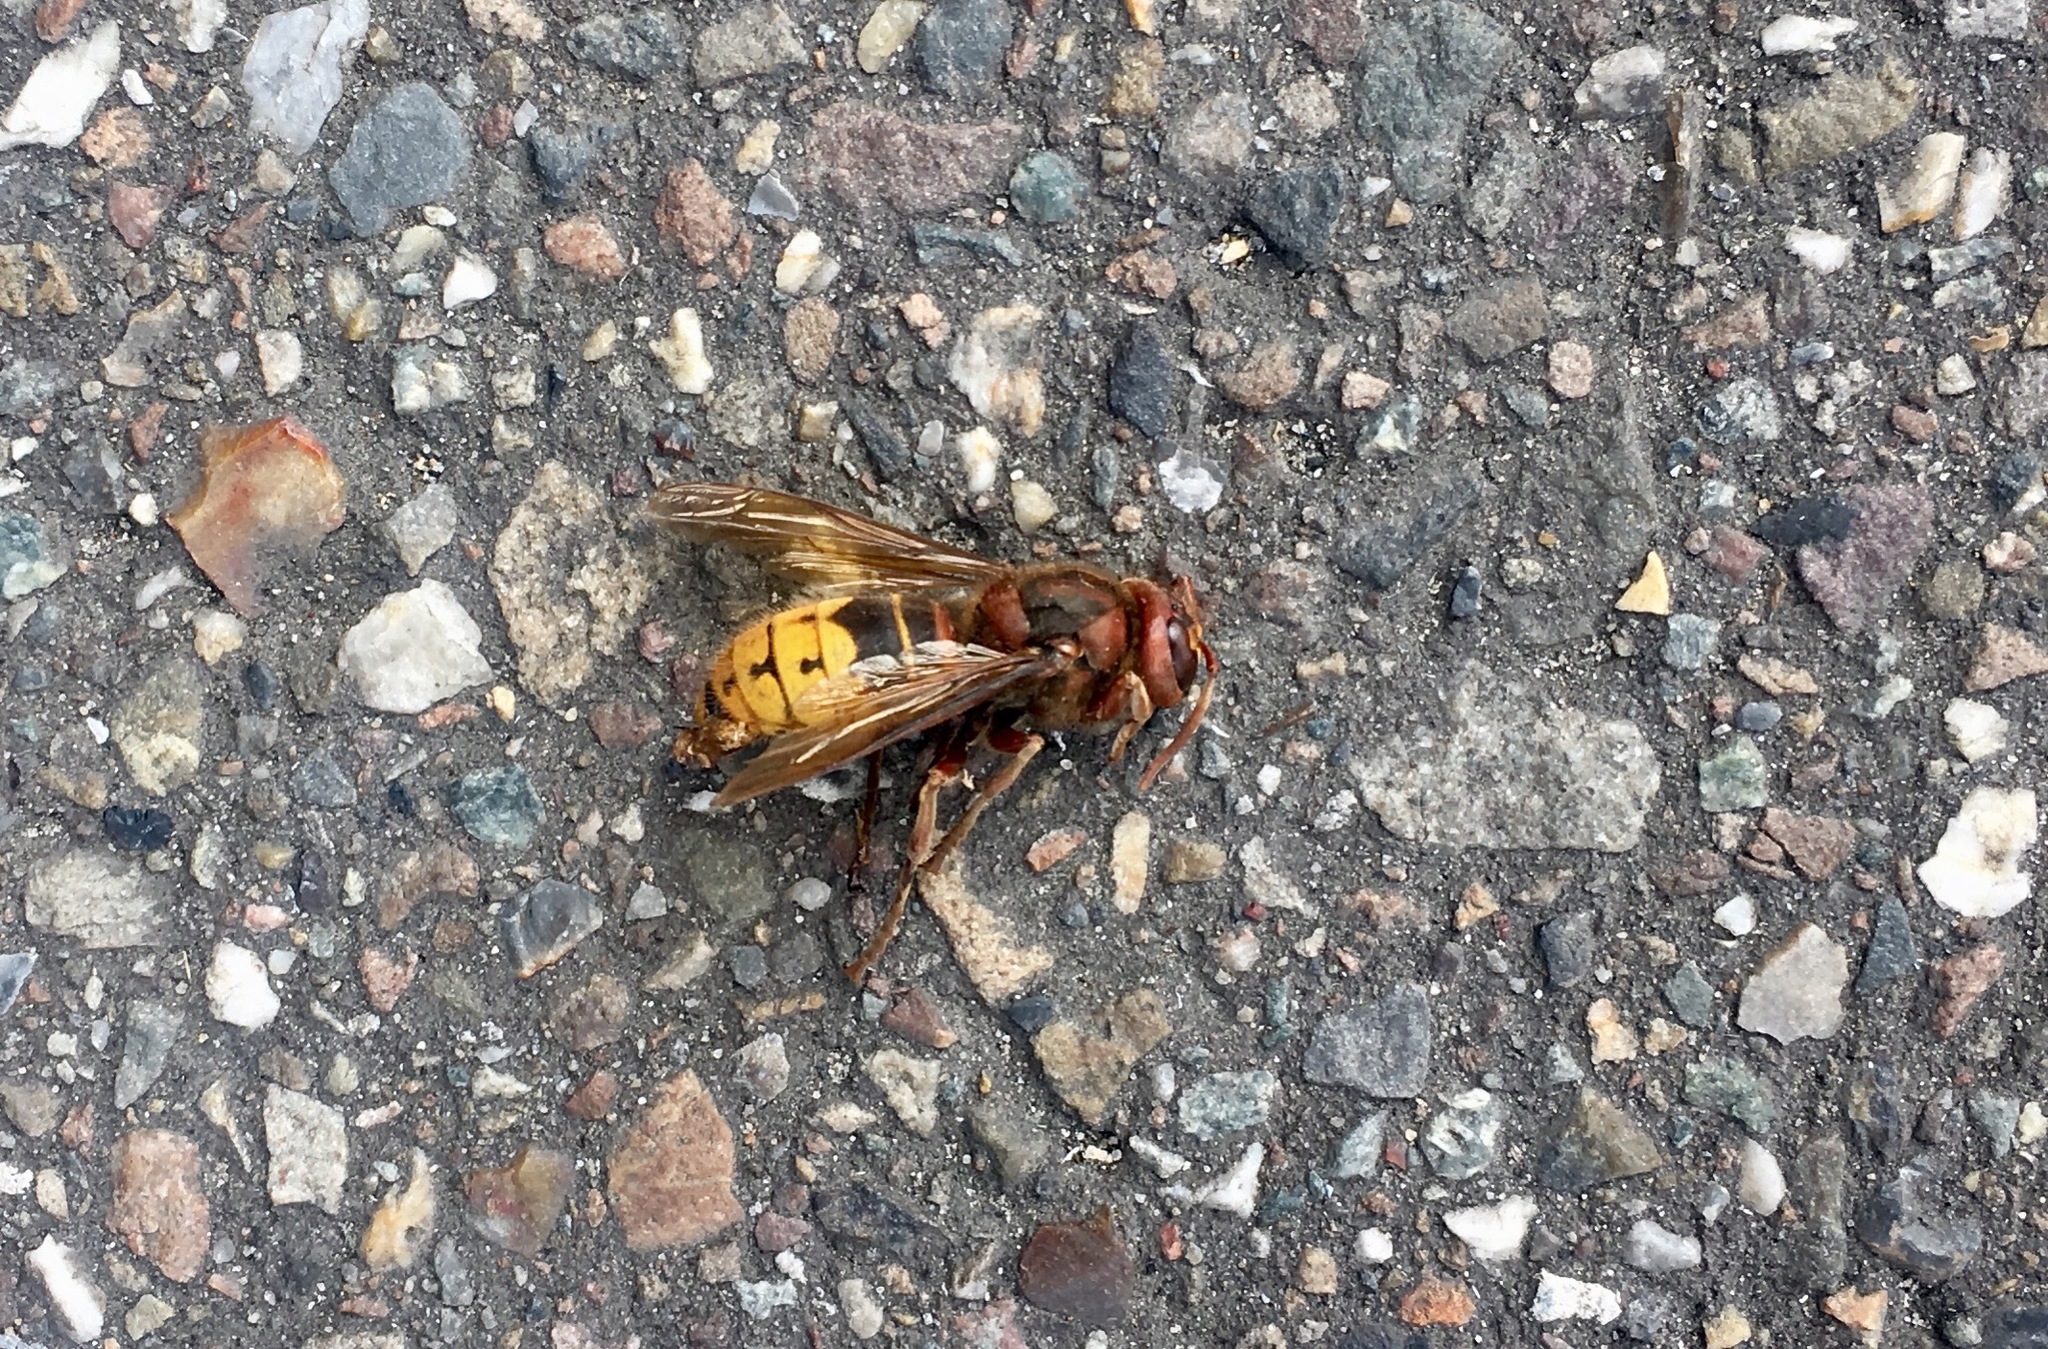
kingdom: Animalia
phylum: Arthropoda
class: Insecta
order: Hymenoptera
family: Vespidae
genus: Vespa
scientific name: Vespa crabro
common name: Hornet
